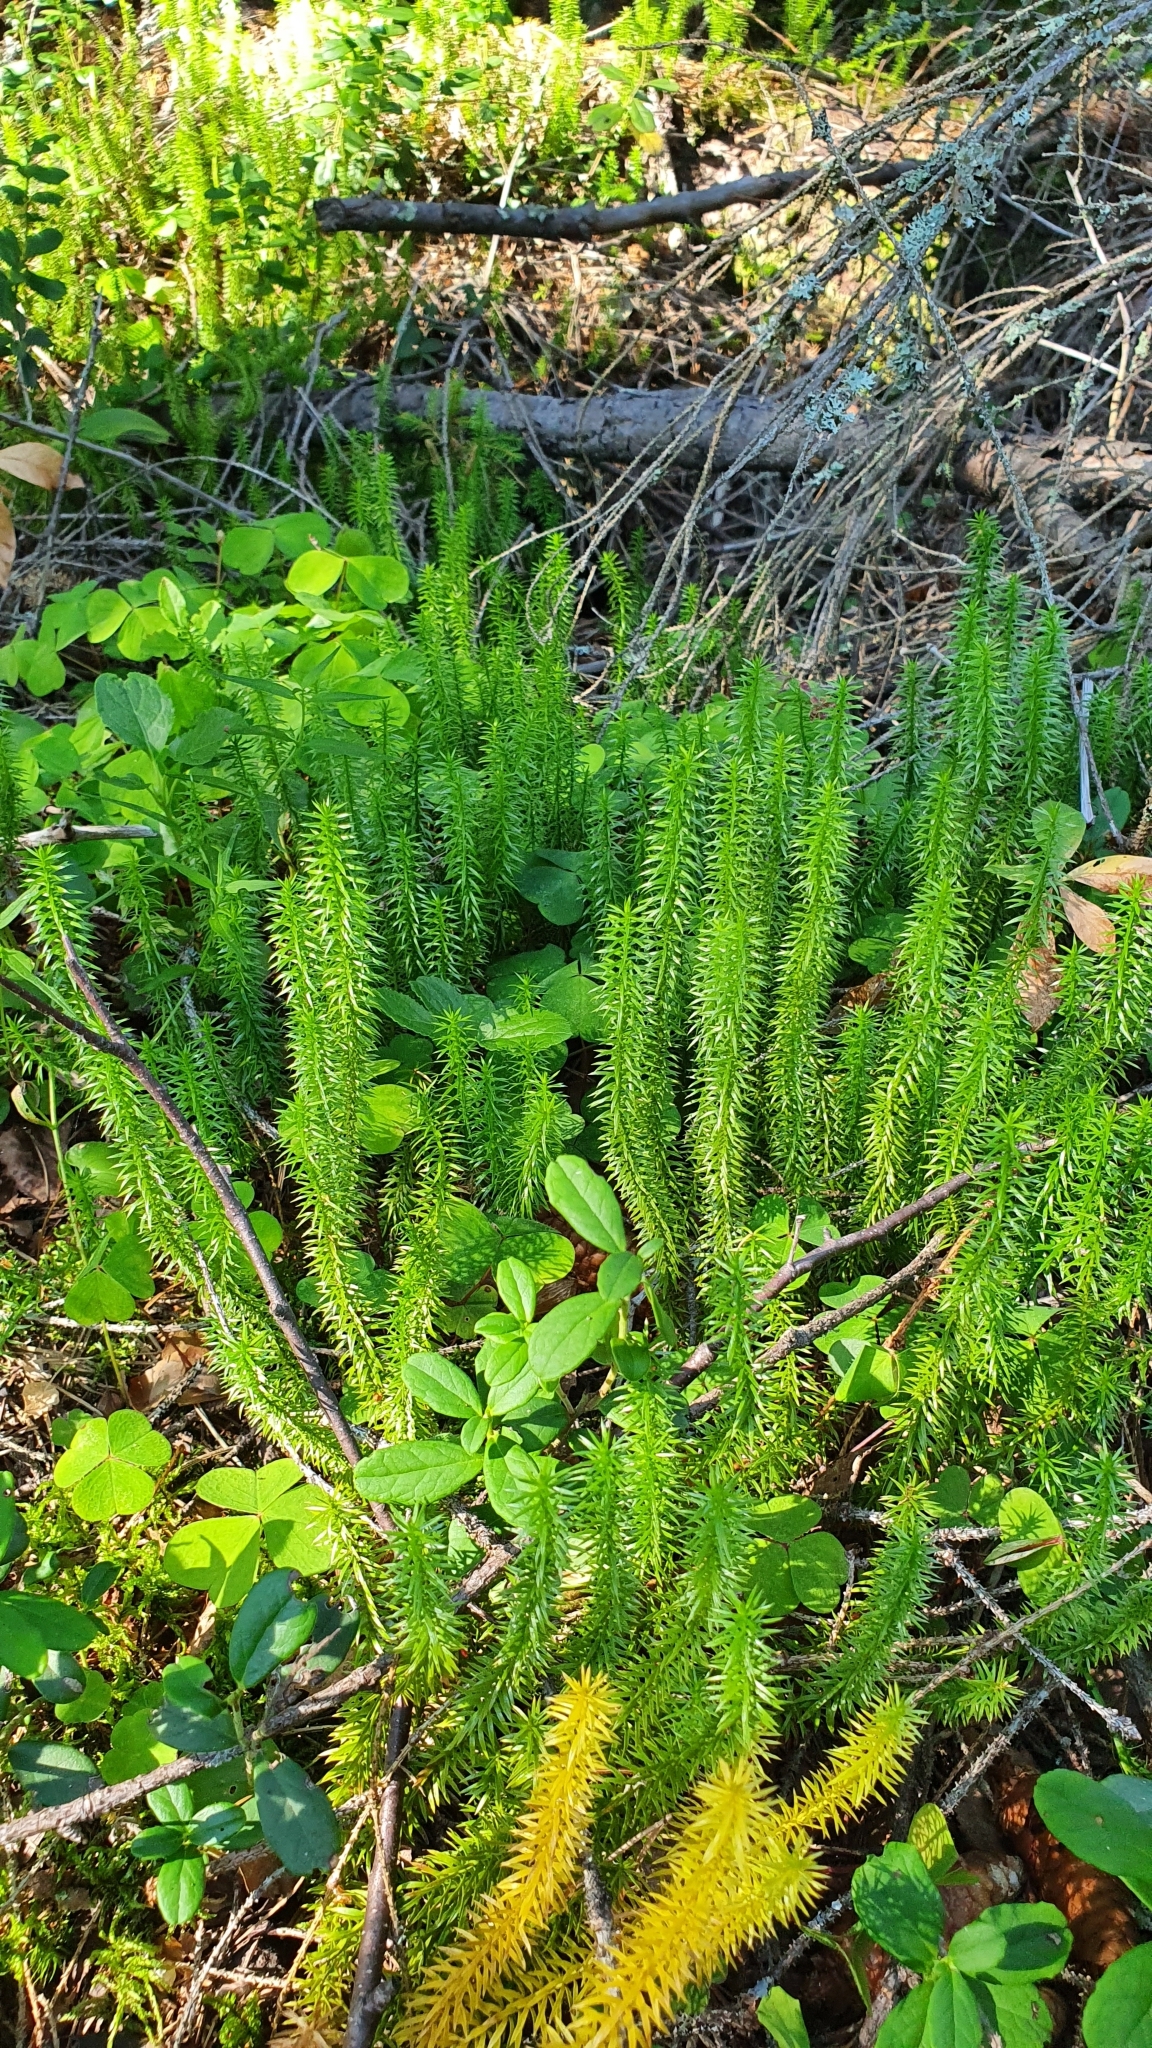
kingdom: Plantae
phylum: Tracheophyta
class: Lycopodiopsida
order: Lycopodiales
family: Lycopodiaceae
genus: Spinulum
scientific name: Spinulum annotinum
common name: Interrupted club-moss
